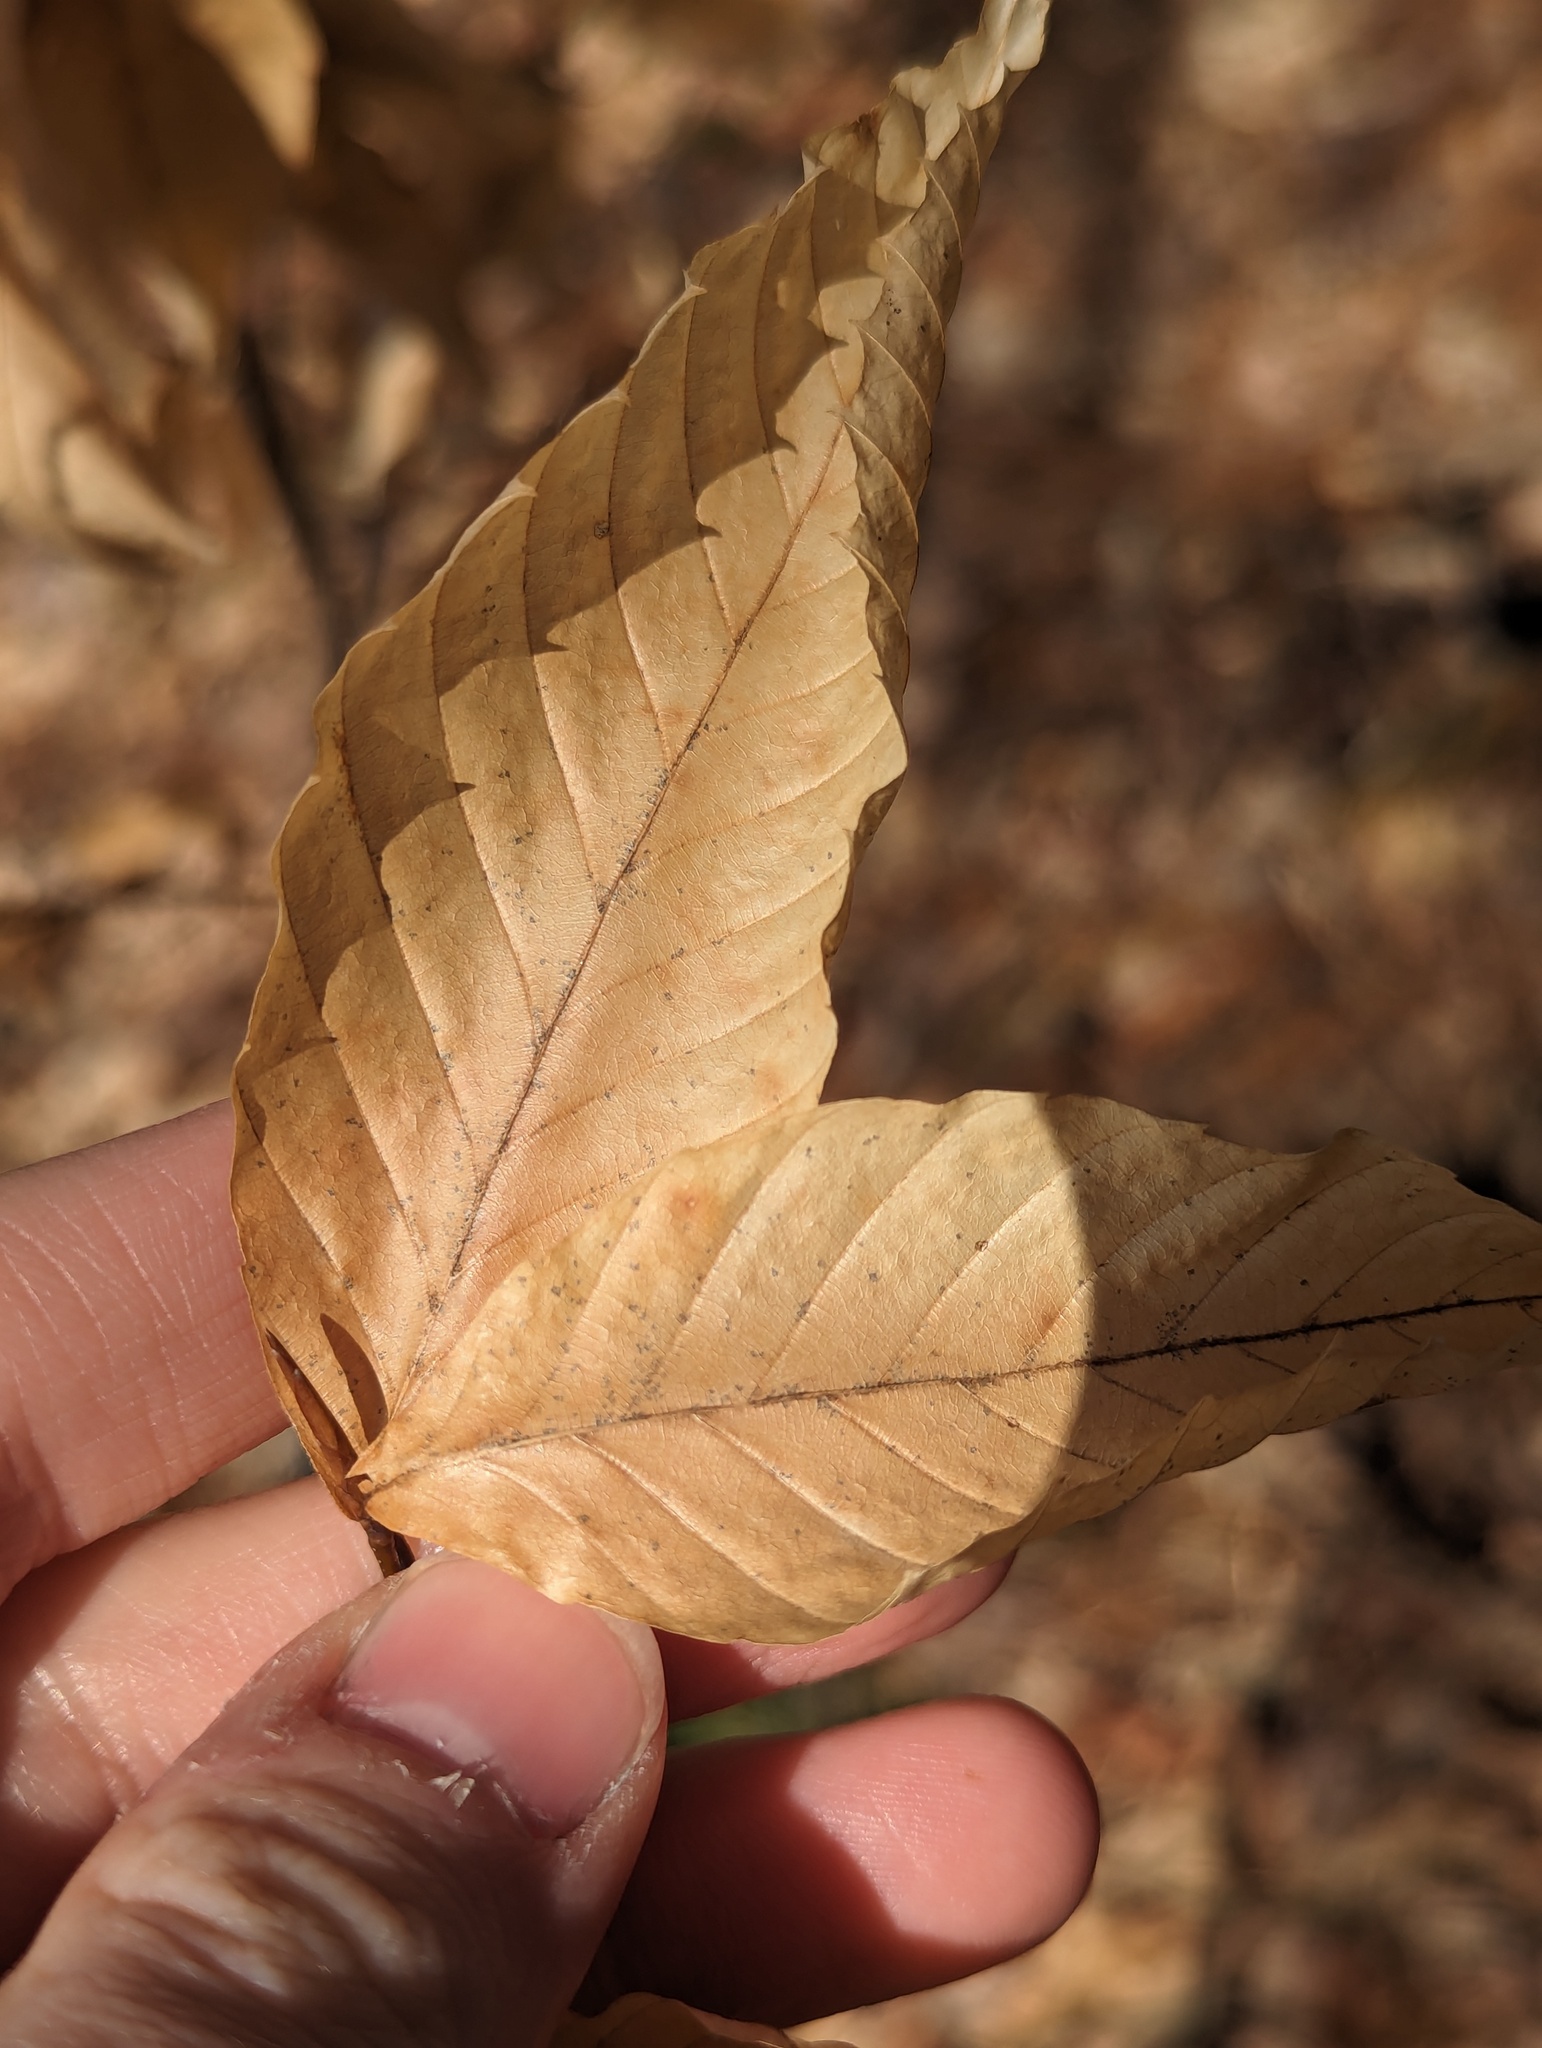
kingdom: Plantae
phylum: Tracheophyta
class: Magnoliopsida
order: Fagales
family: Fagaceae
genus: Fagus
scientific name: Fagus grandifolia
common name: American beech
